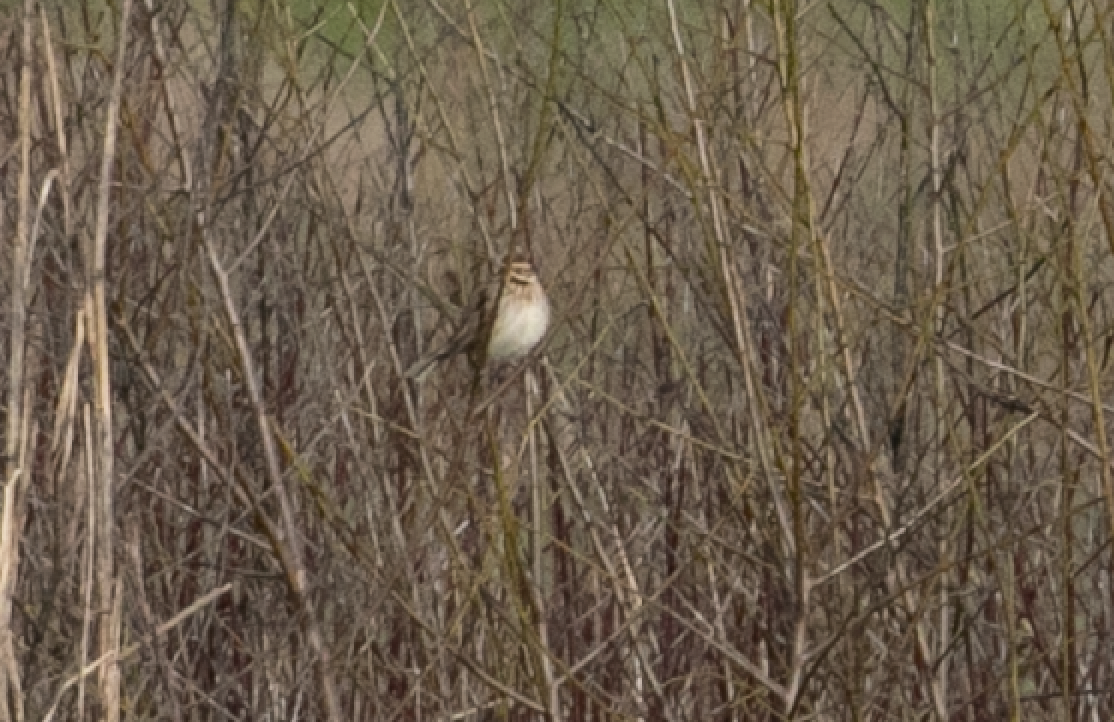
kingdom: Animalia
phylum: Chordata
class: Aves
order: Passeriformes
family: Emberizidae
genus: Emberiza
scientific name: Emberiza schoeniclus
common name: Reed bunting
